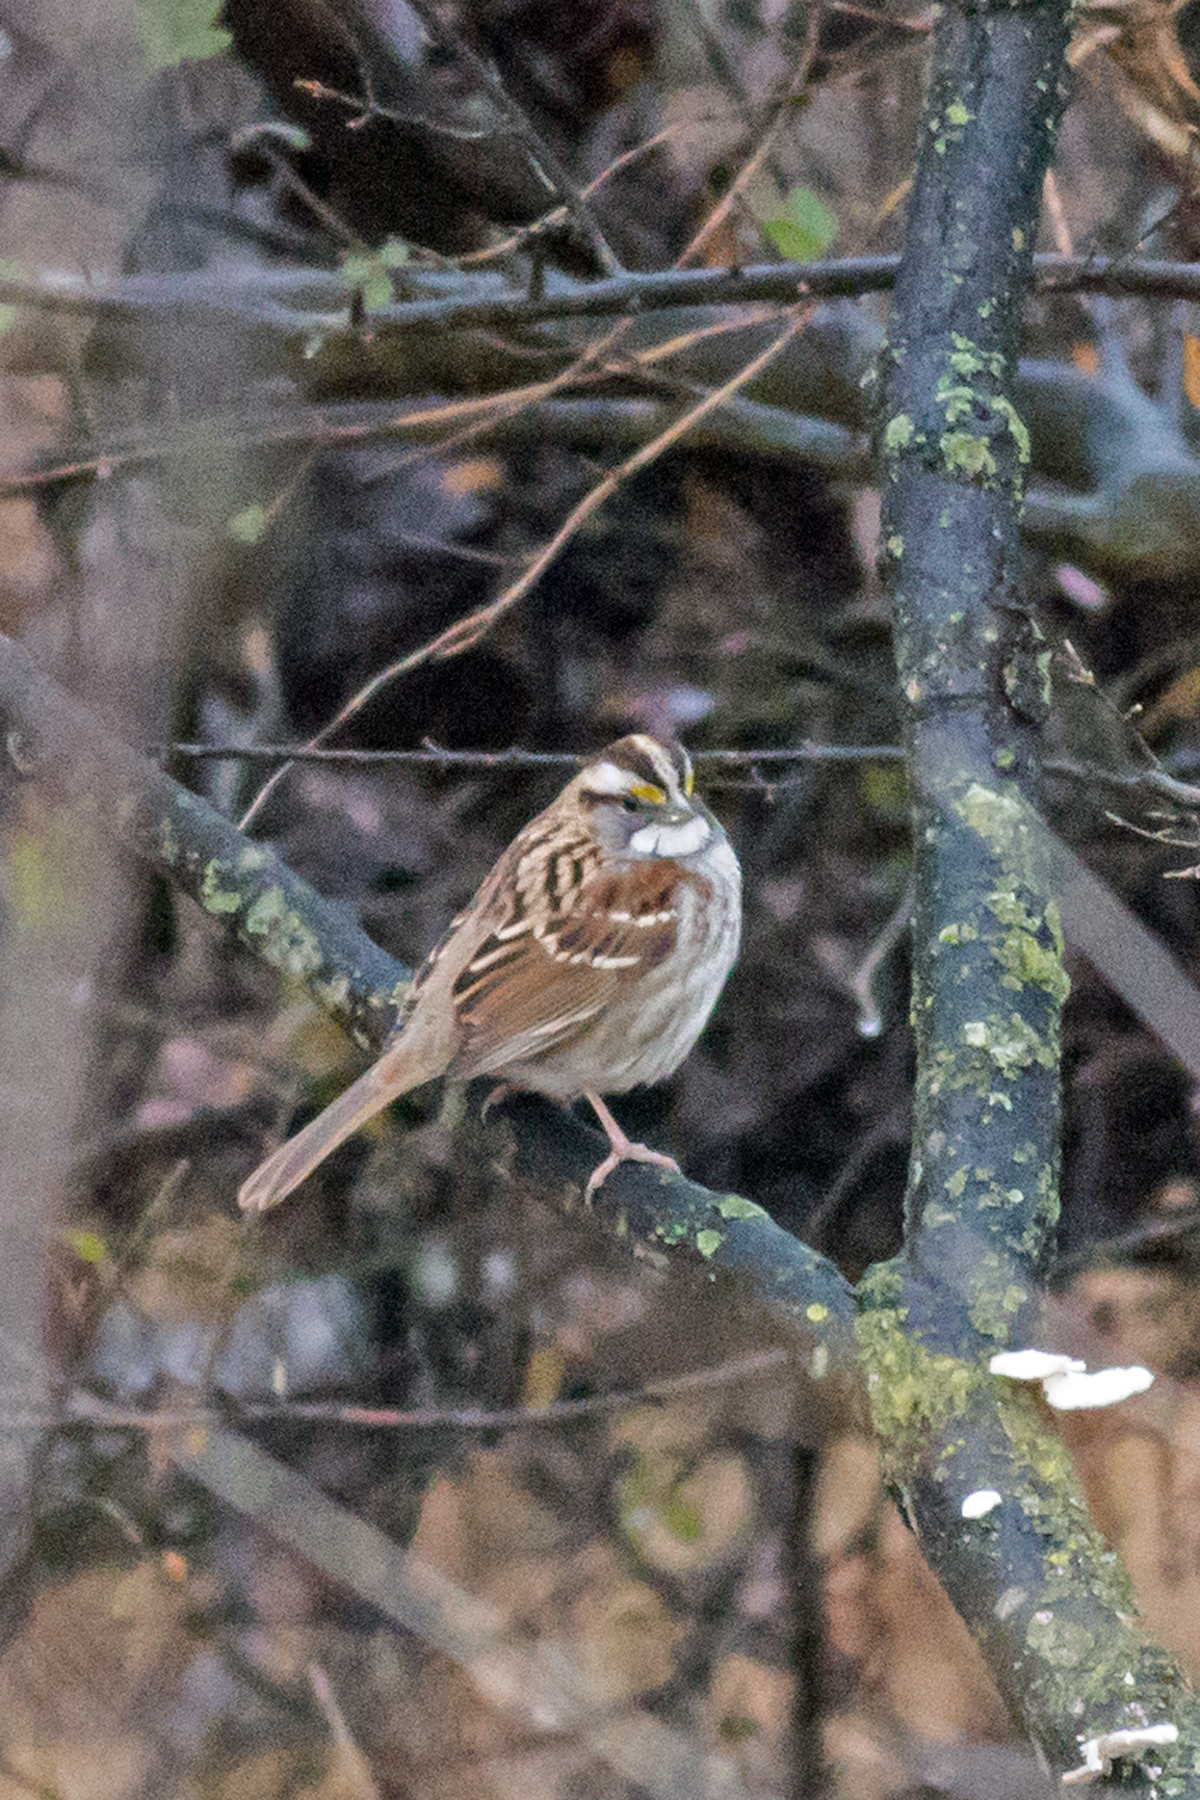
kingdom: Animalia
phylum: Chordata
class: Aves
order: Passeriformes
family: Passerellidae
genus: Zonotrichia
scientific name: Zonotrichia albicollis
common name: White-throated sparrow
